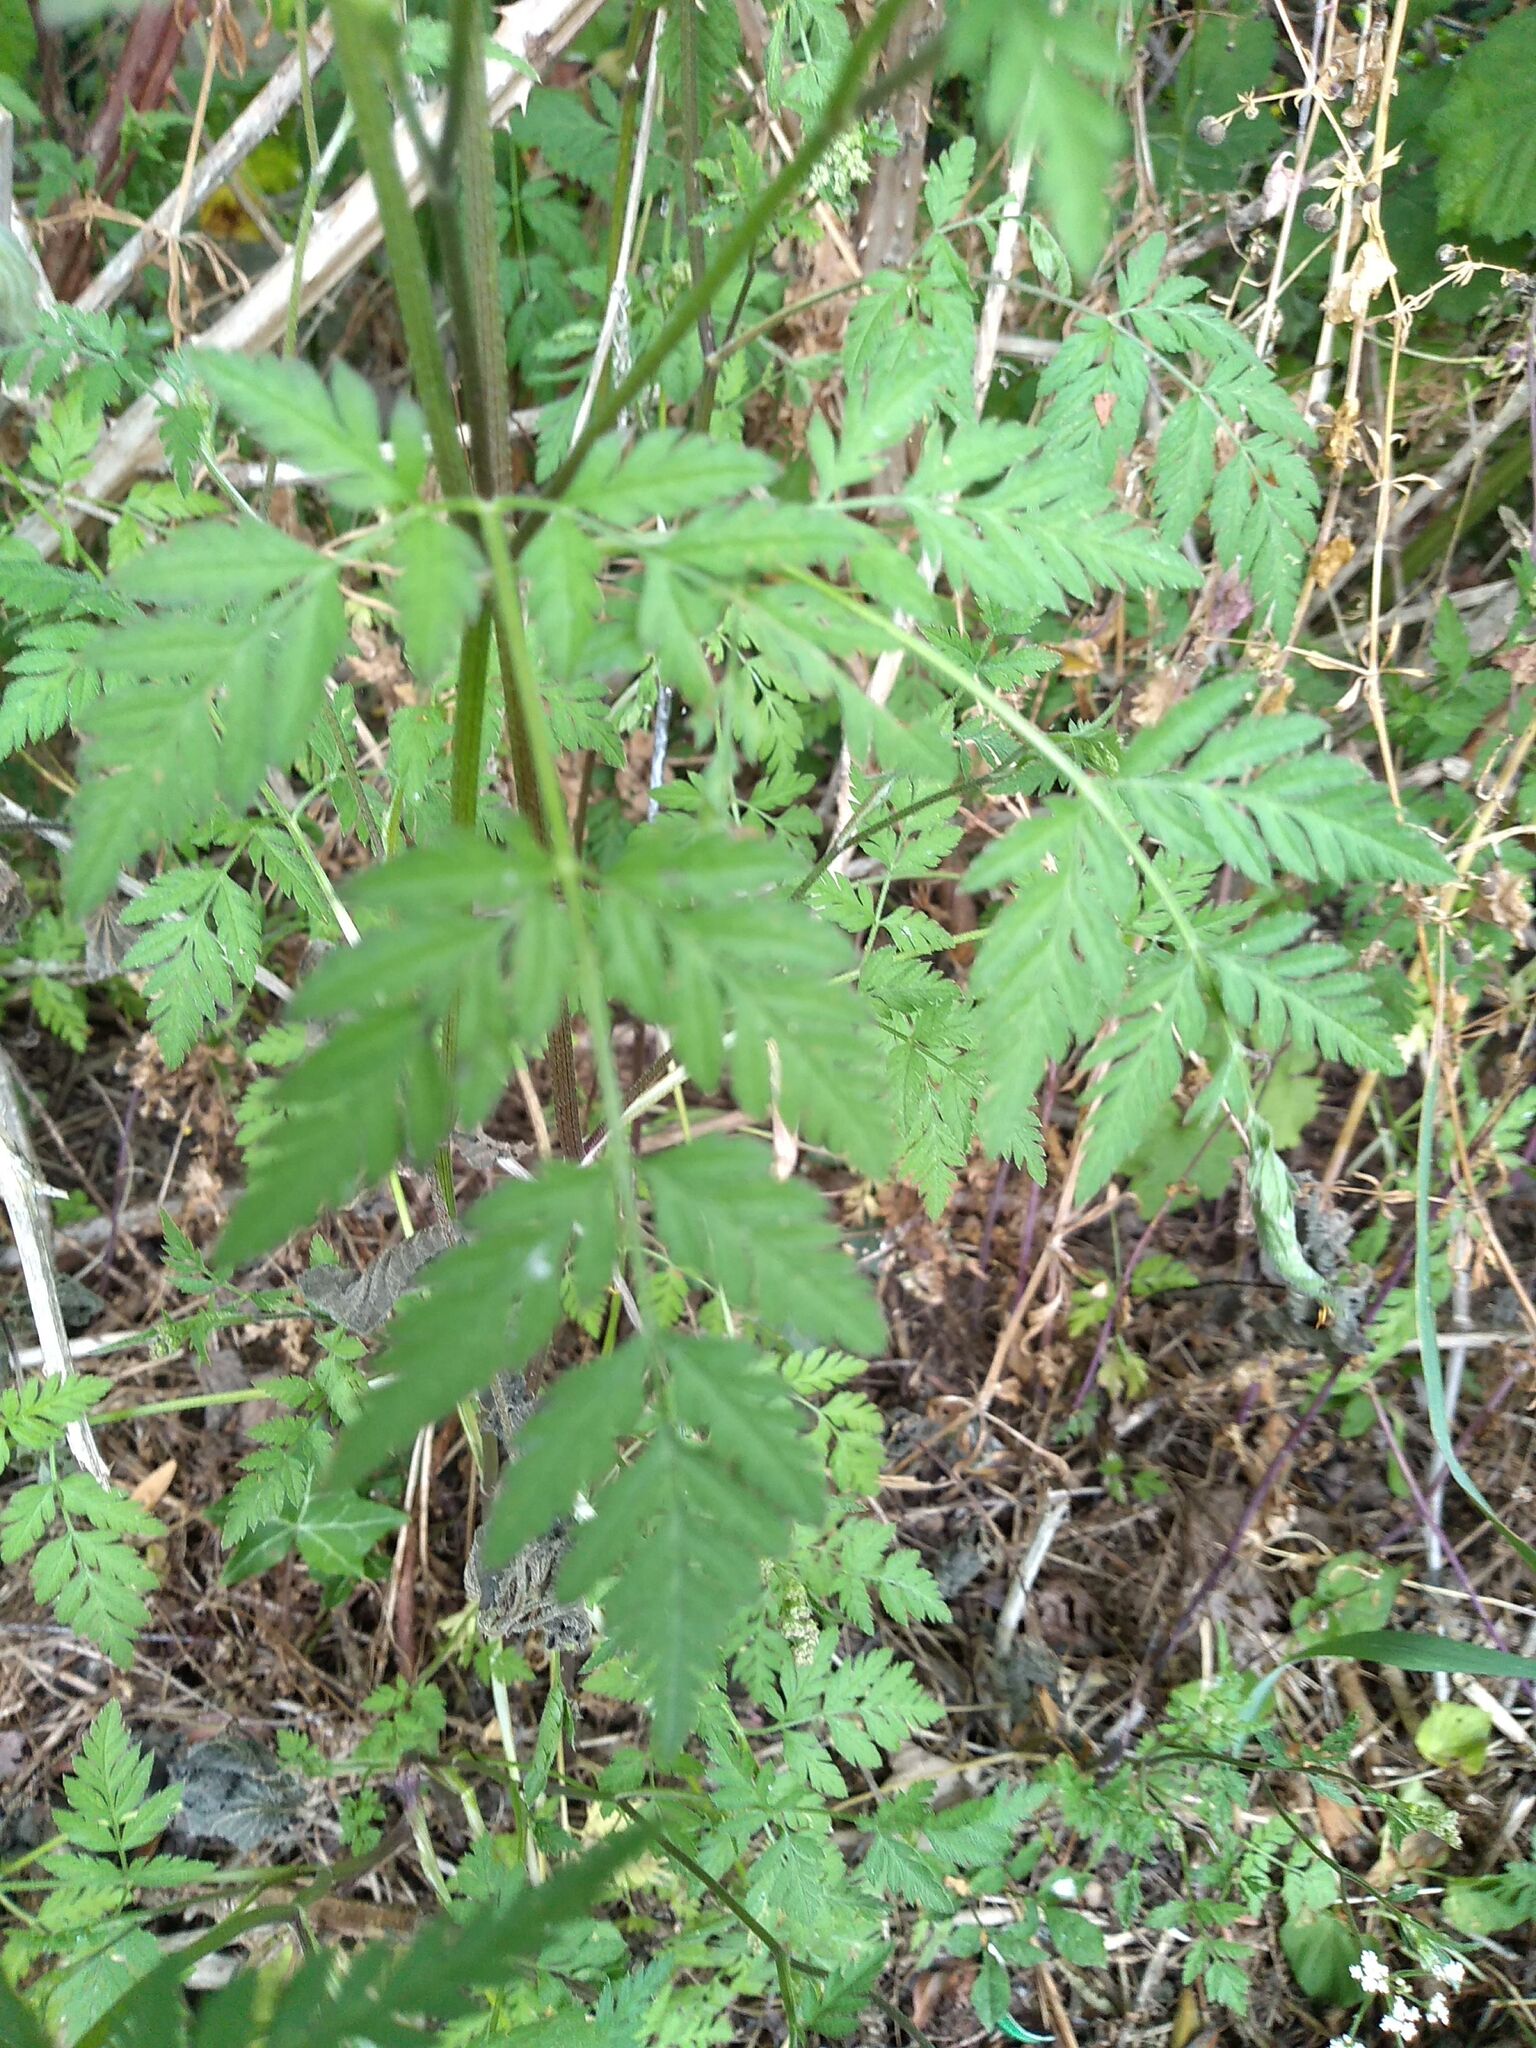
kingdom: Plantae
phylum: Tracheophyta
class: Magnoliopsida
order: Apiales
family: Apiaceae
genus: Torilis
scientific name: Torilis japonica
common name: Upright hedge-parsley
